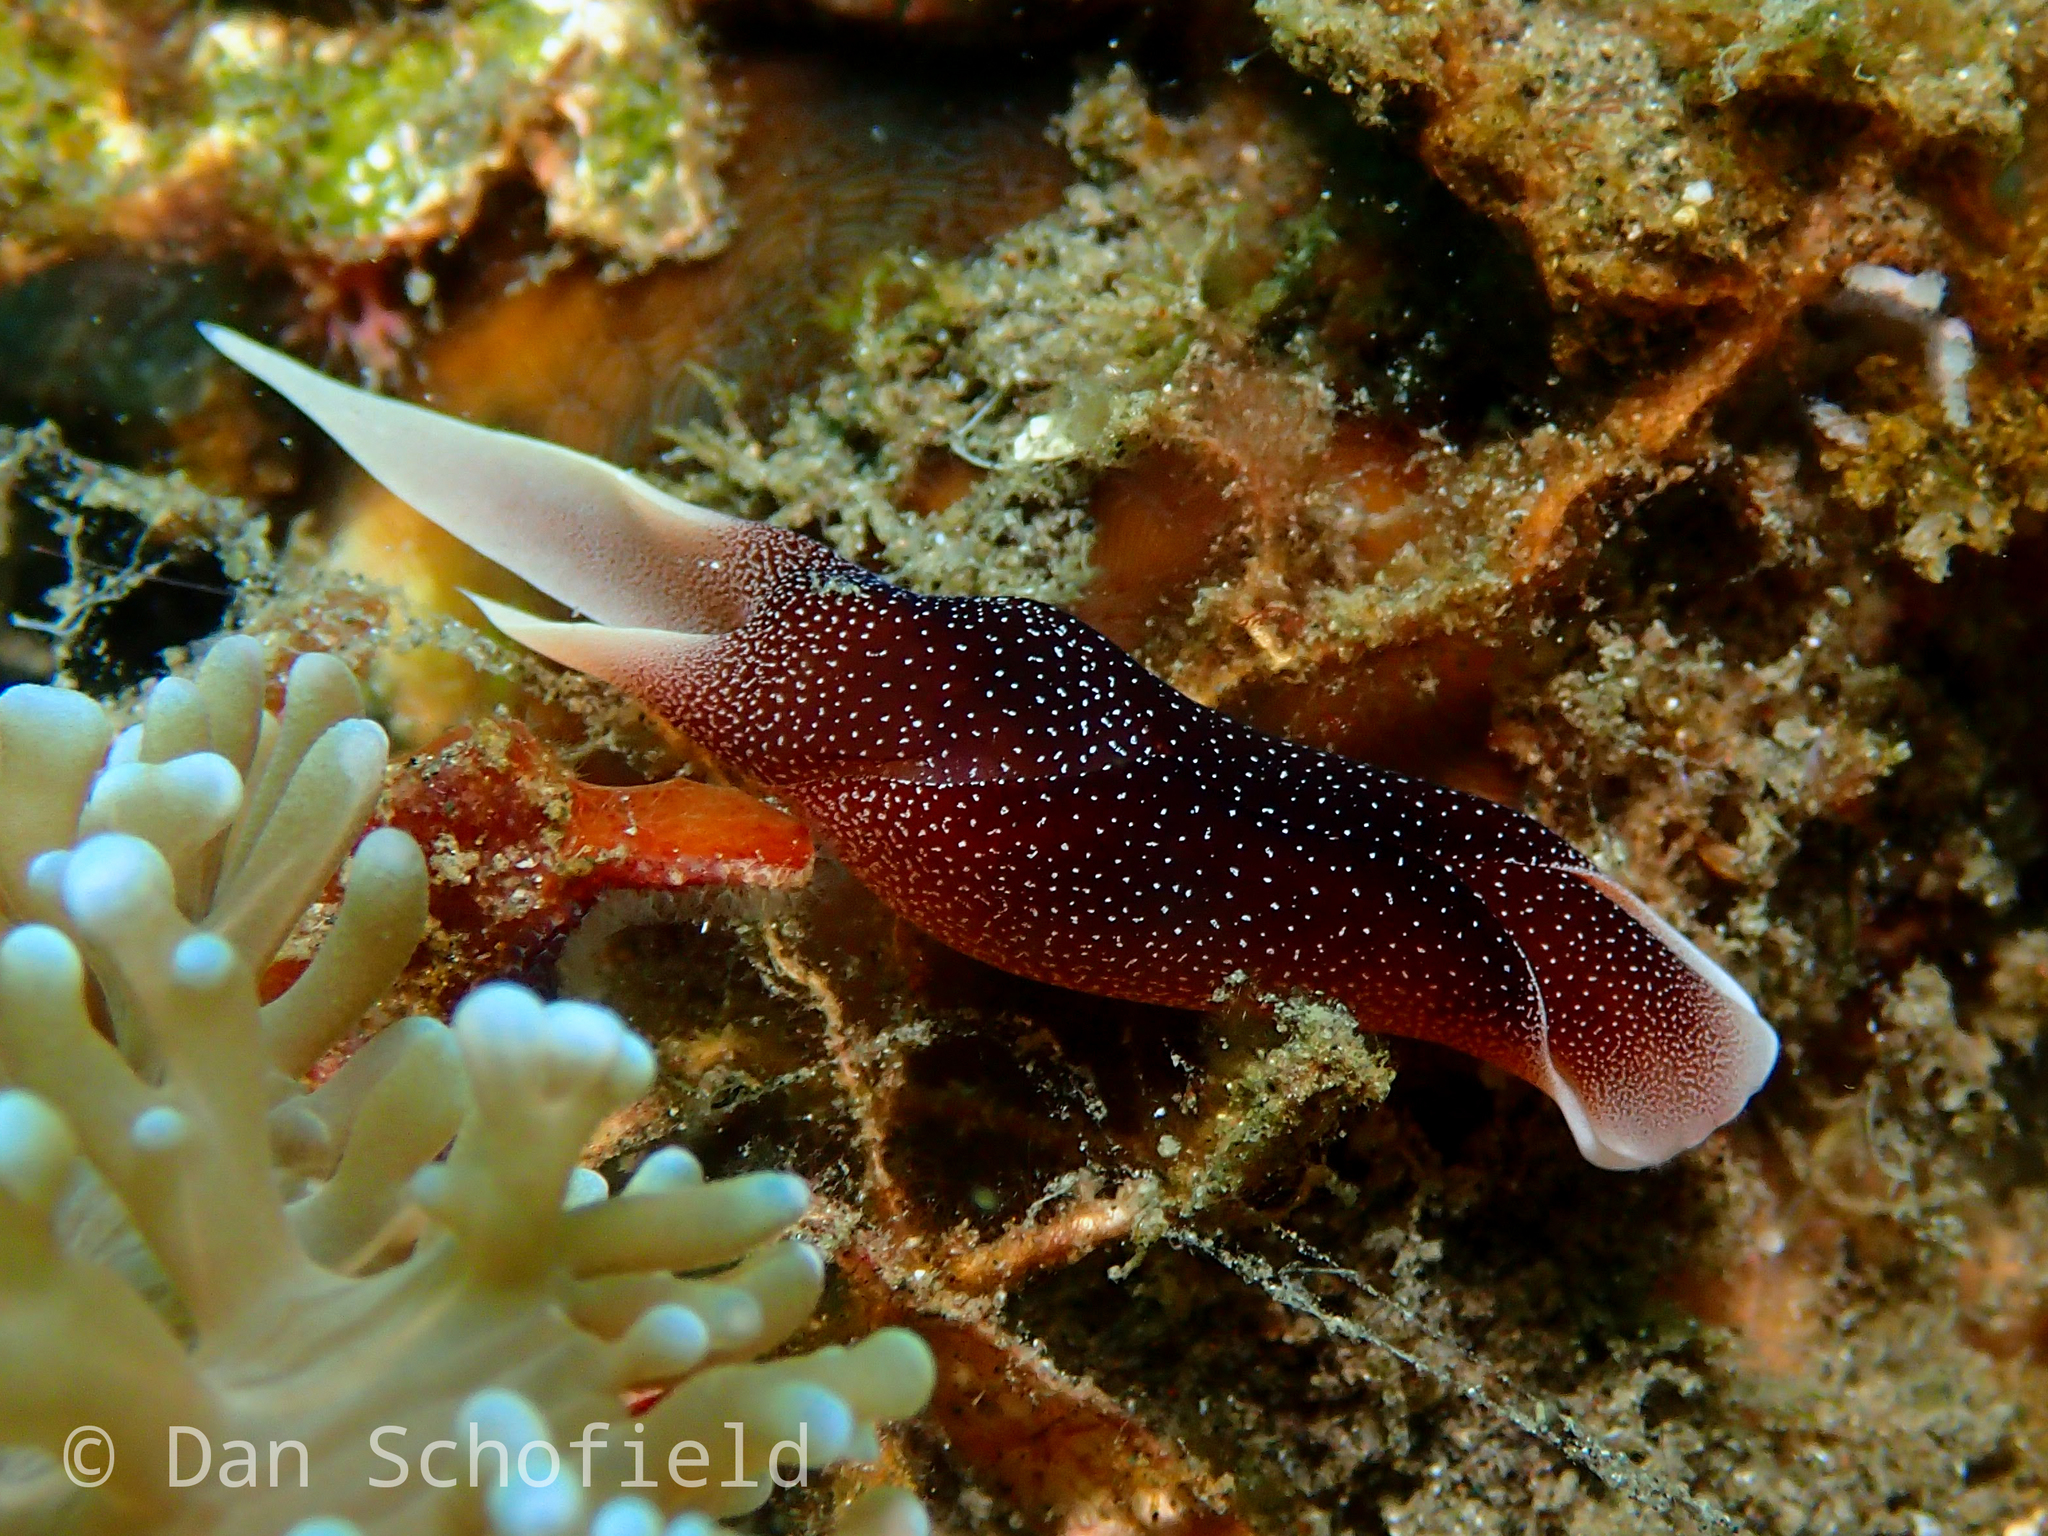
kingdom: Animalia
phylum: Mollusca
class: Gastropoda
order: Cephalaspidea
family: Aglajidae
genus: Chelidonura
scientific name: Chelidonura amoena
